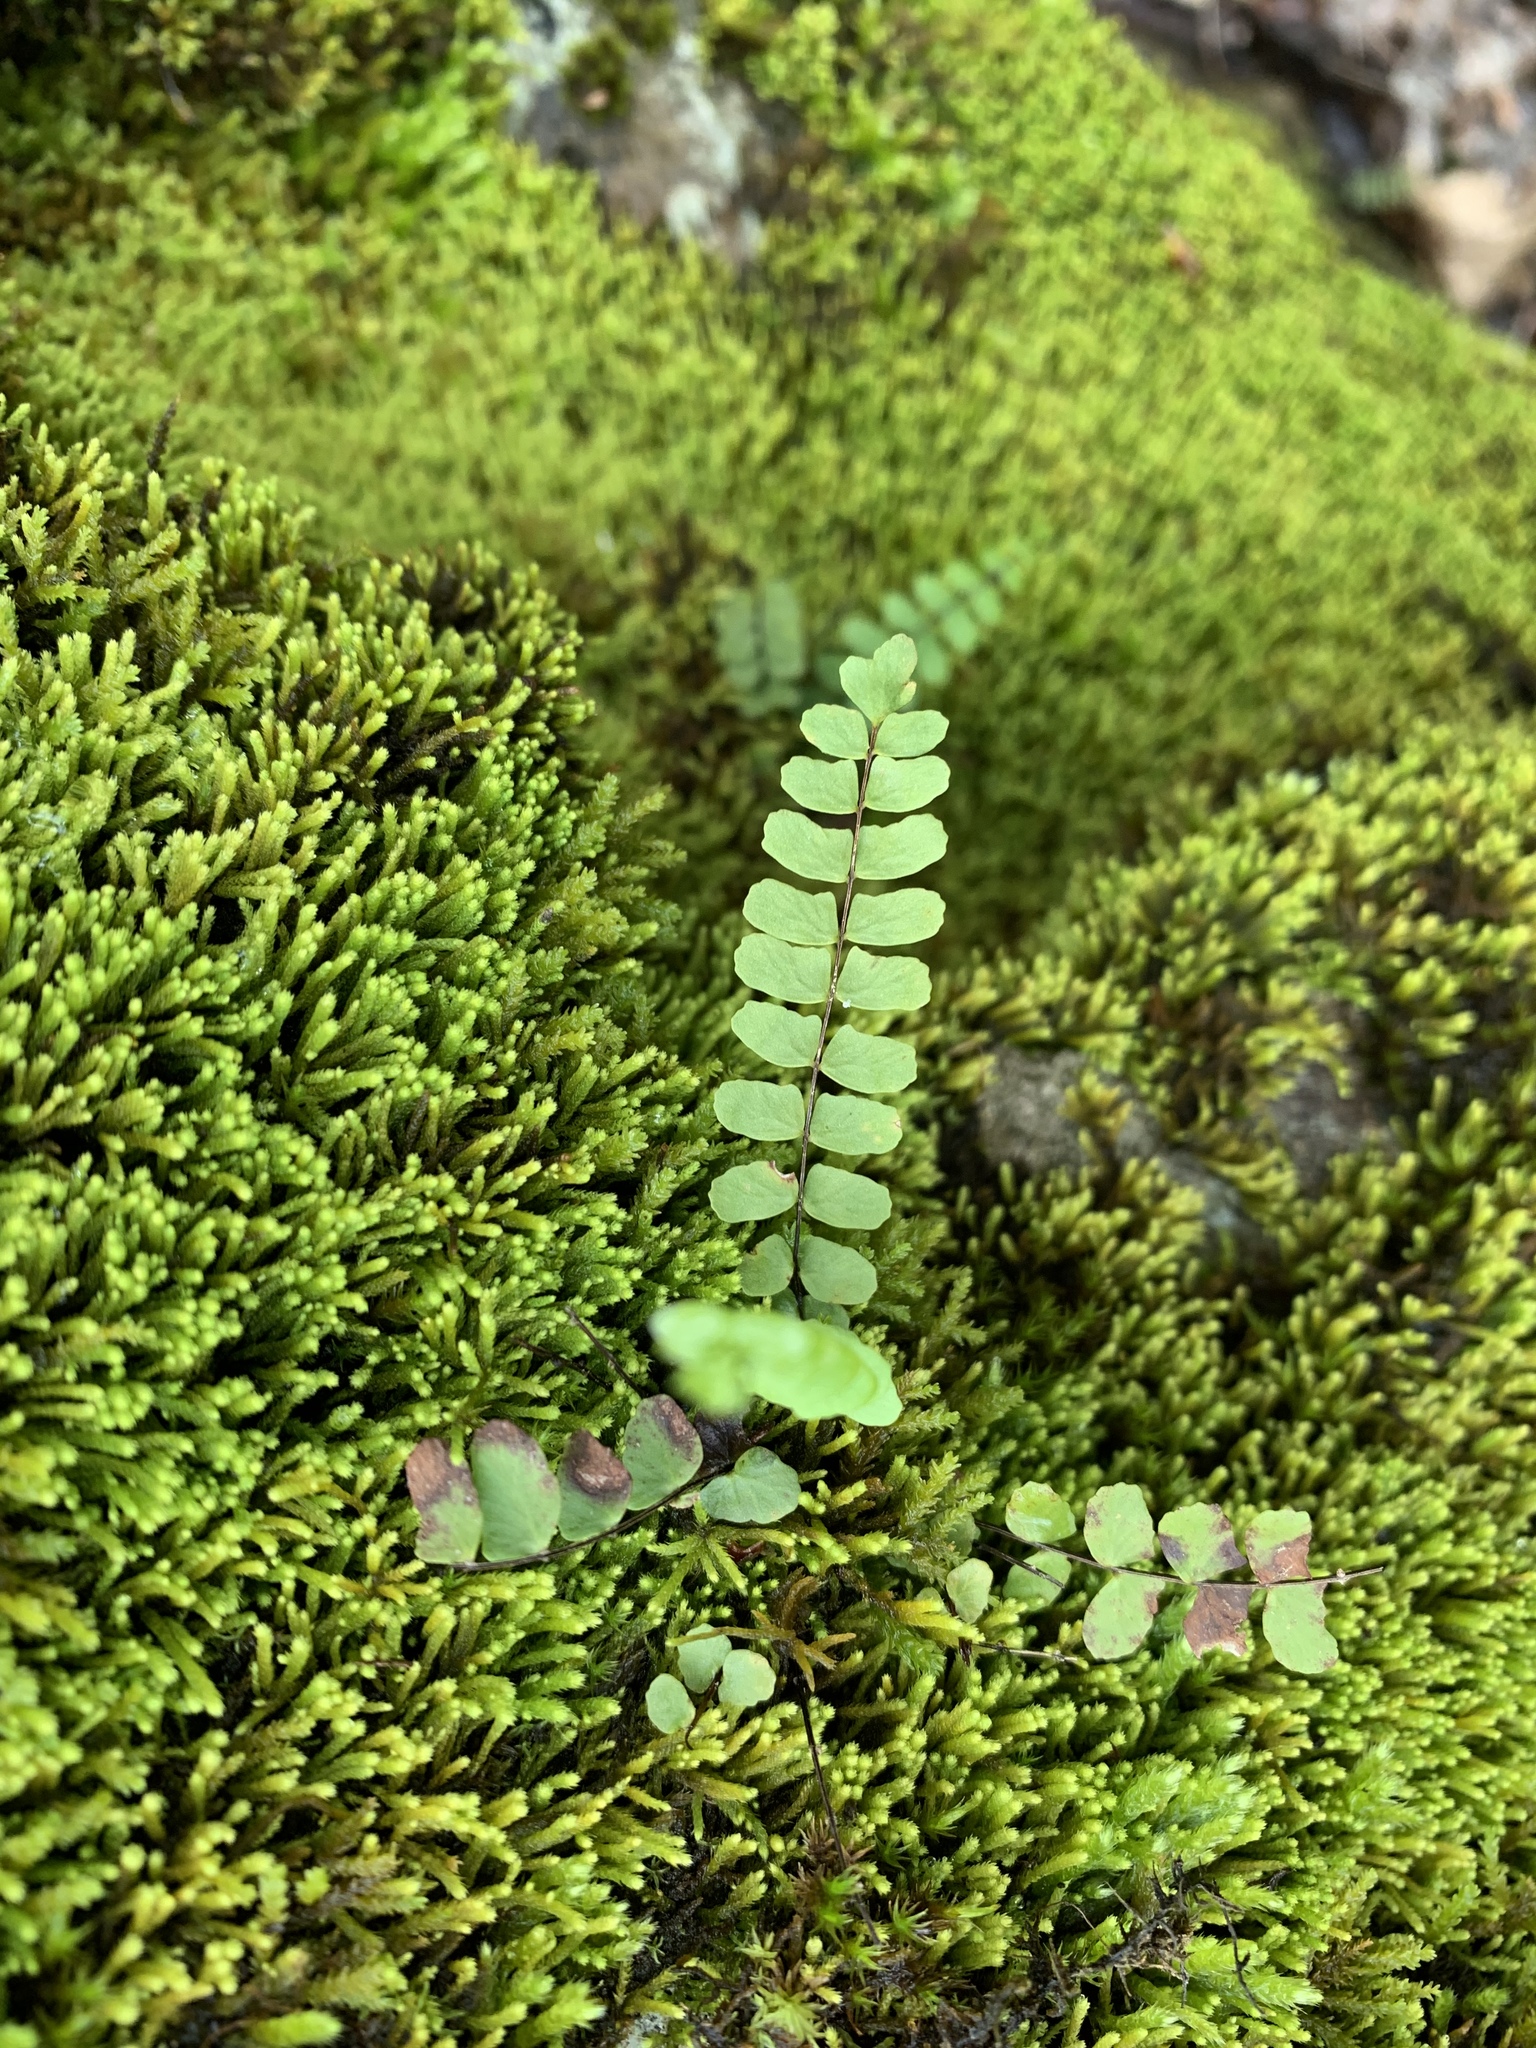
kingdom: Plantae
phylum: Tracheophyta
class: Polypodiopsida
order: Polypodiales
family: Aspleniaceae
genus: Asplenium
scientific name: Asplenium resiliens
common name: Blackstem spleenwort
